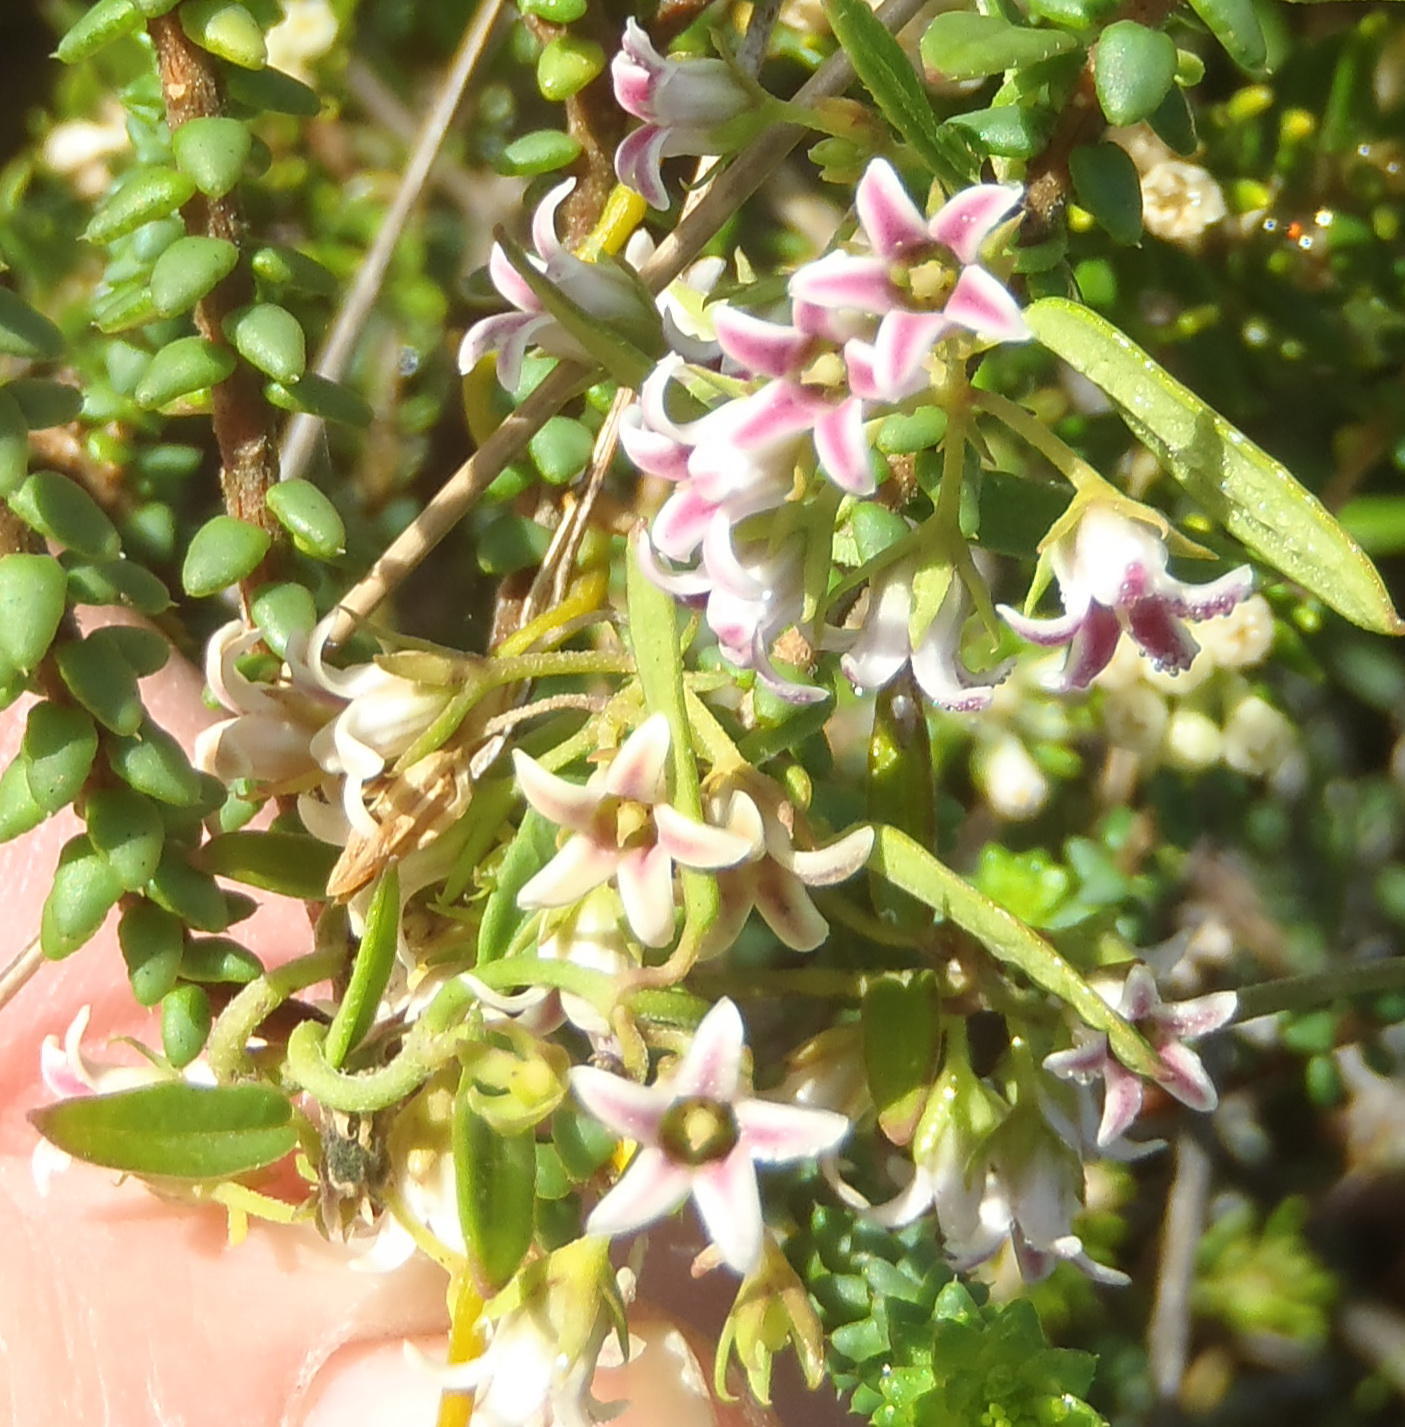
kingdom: Plantae
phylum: Tracheophyta
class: Magnoliopsida
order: Gentianales
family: Apocynaceae
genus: Astephanus
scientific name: Astephanus triflorus
